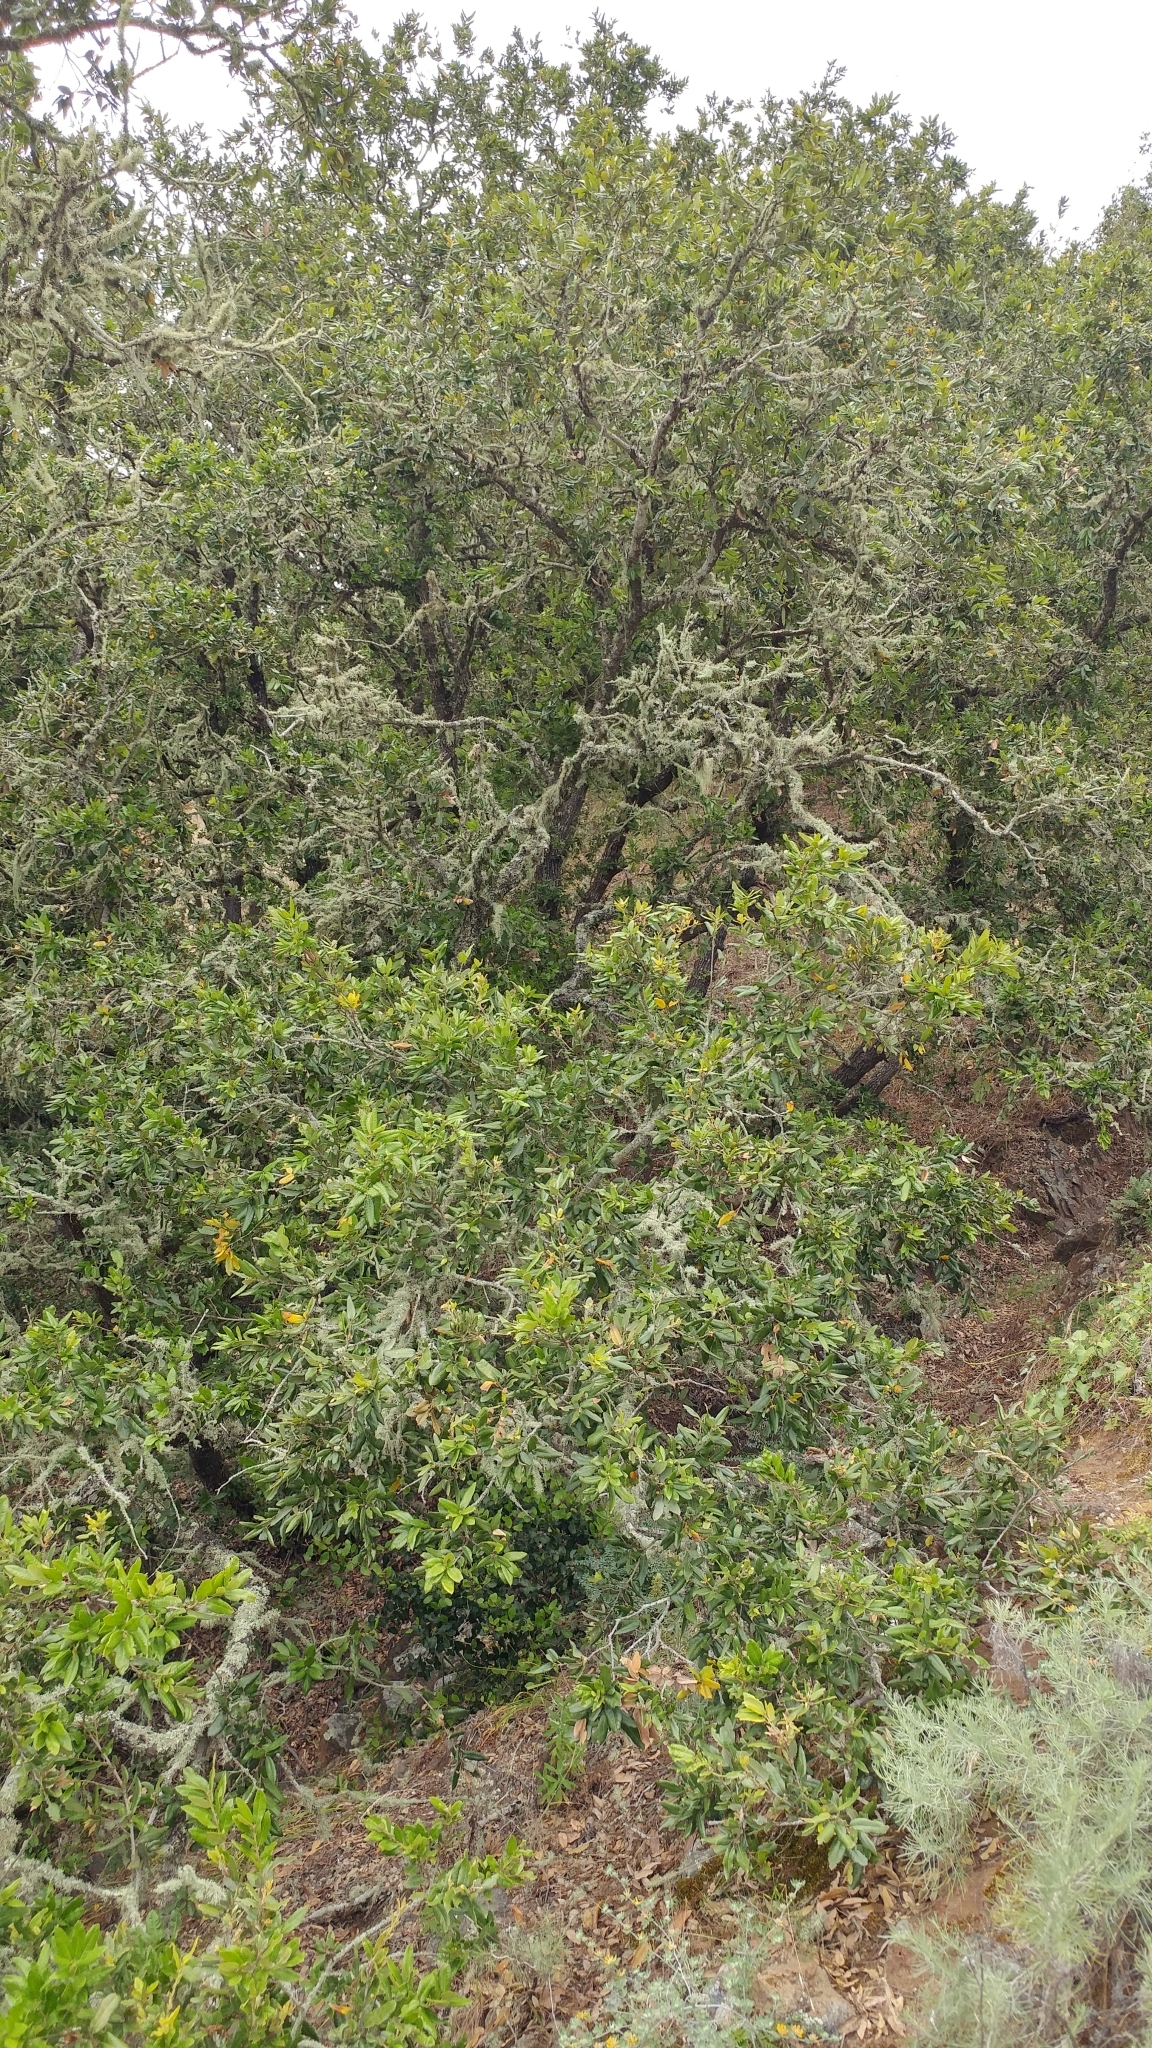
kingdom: Plantae
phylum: Tracheophyta
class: Magnoliopsida
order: Fagales
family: Fagaceae
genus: Quercus
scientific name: Quercus tomentella
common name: Island oak
